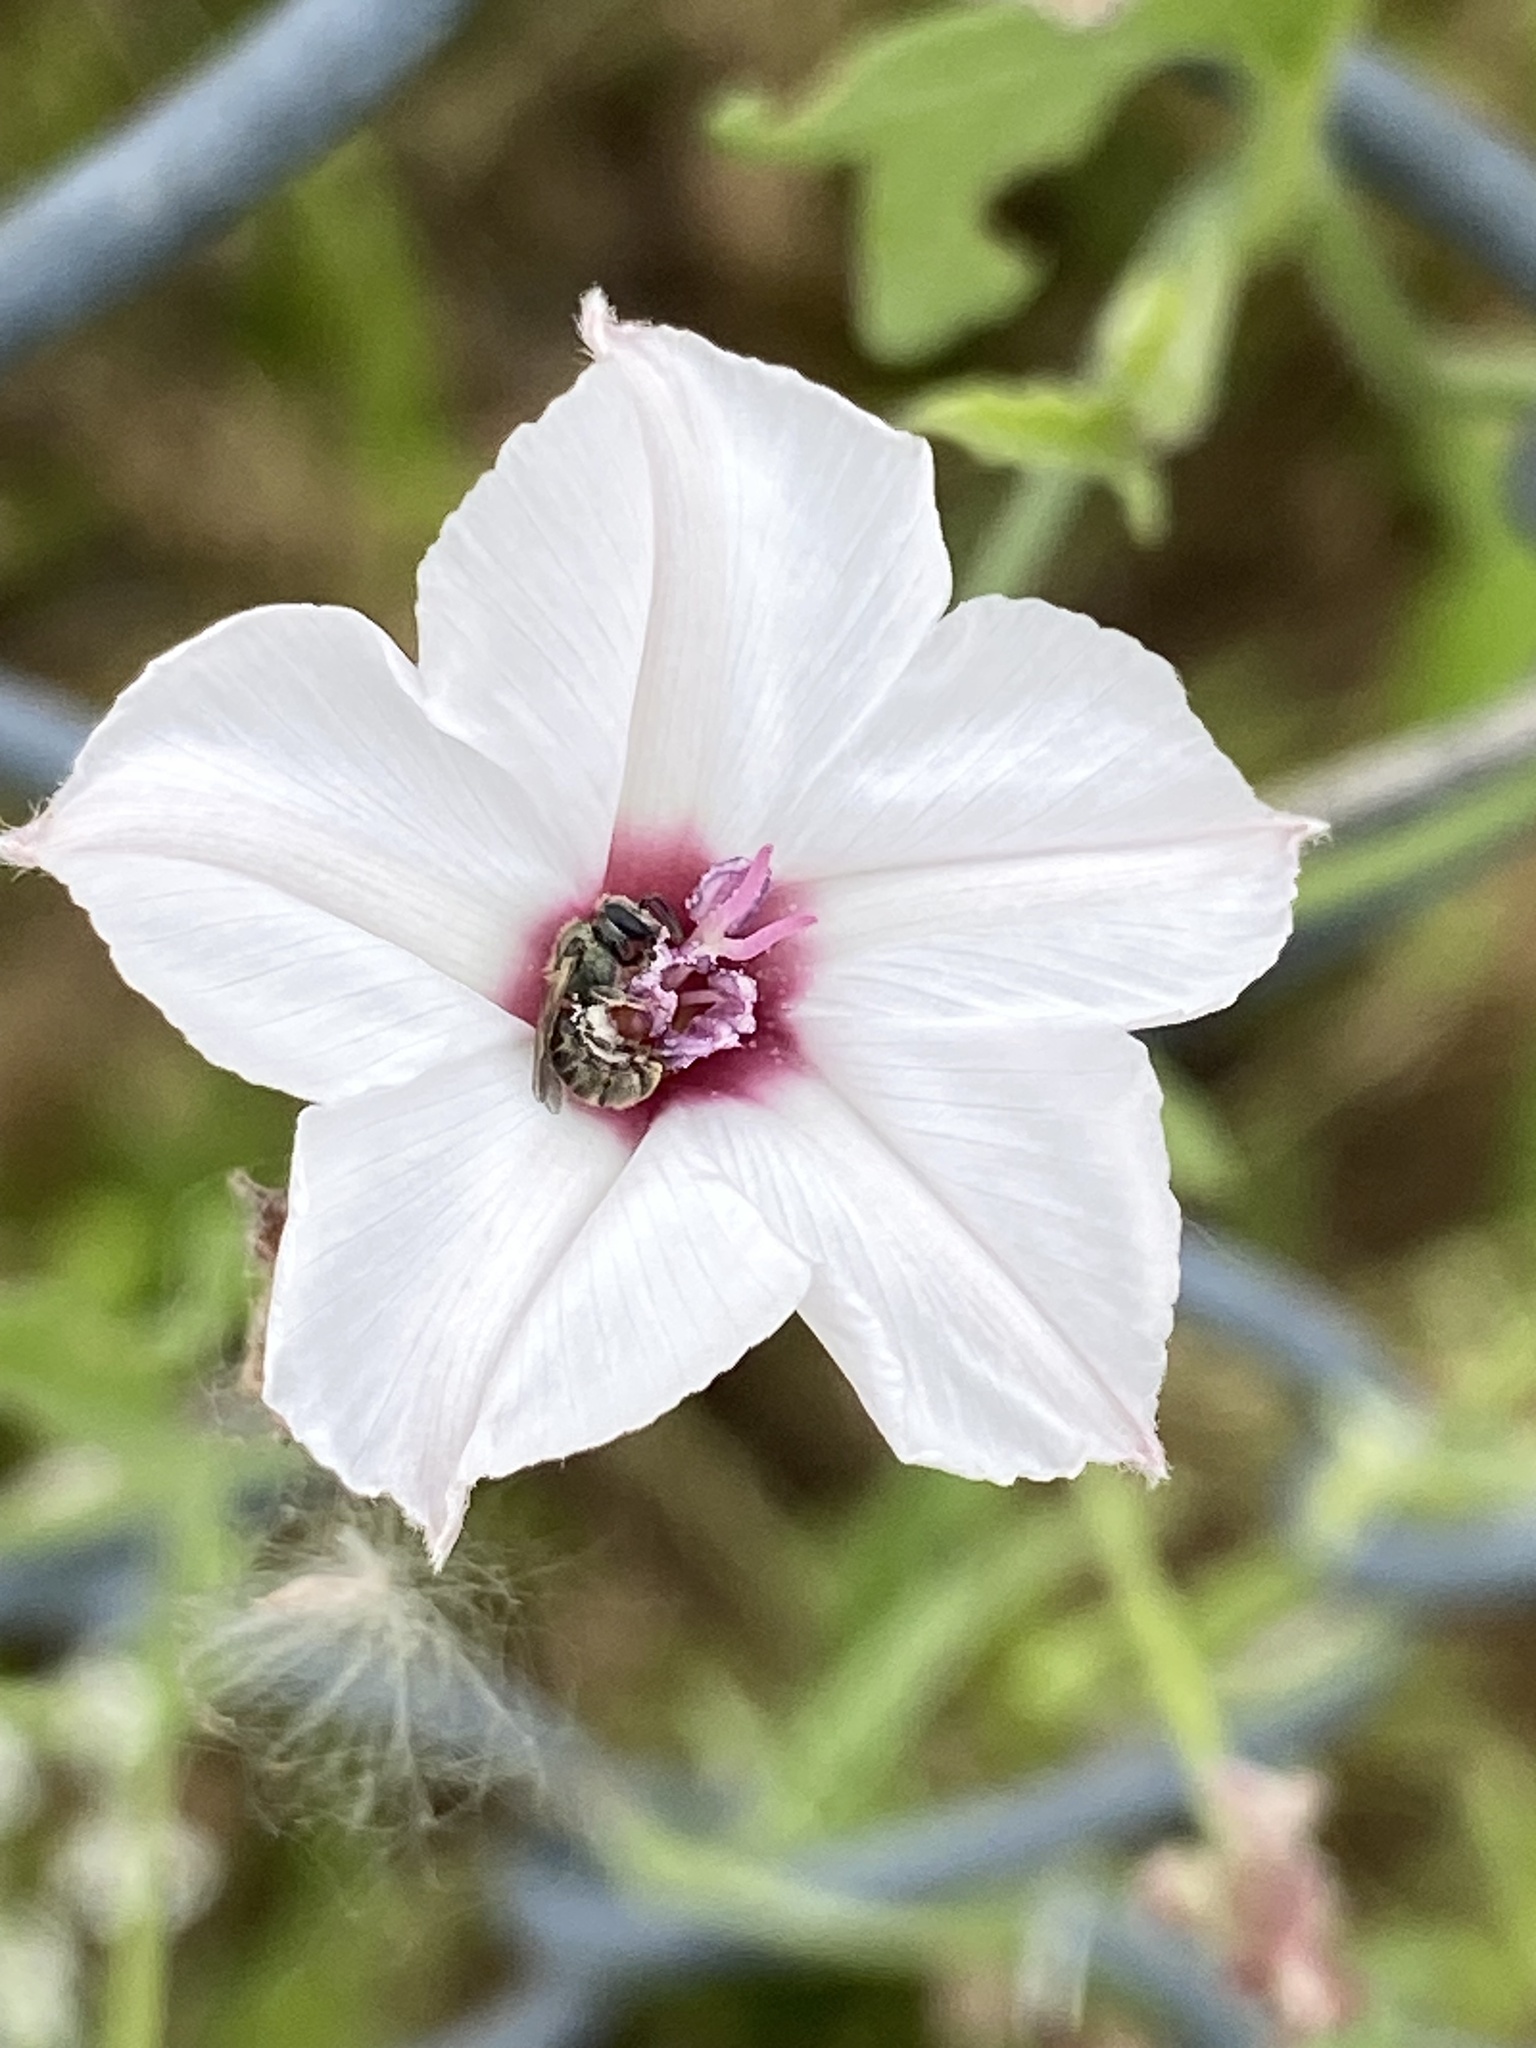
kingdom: Plantae
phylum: Tracheophyta
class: Magnoliopsida
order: Solanales
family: Convolvulaceae
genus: Convolvulus
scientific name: Convolvulus equitans
